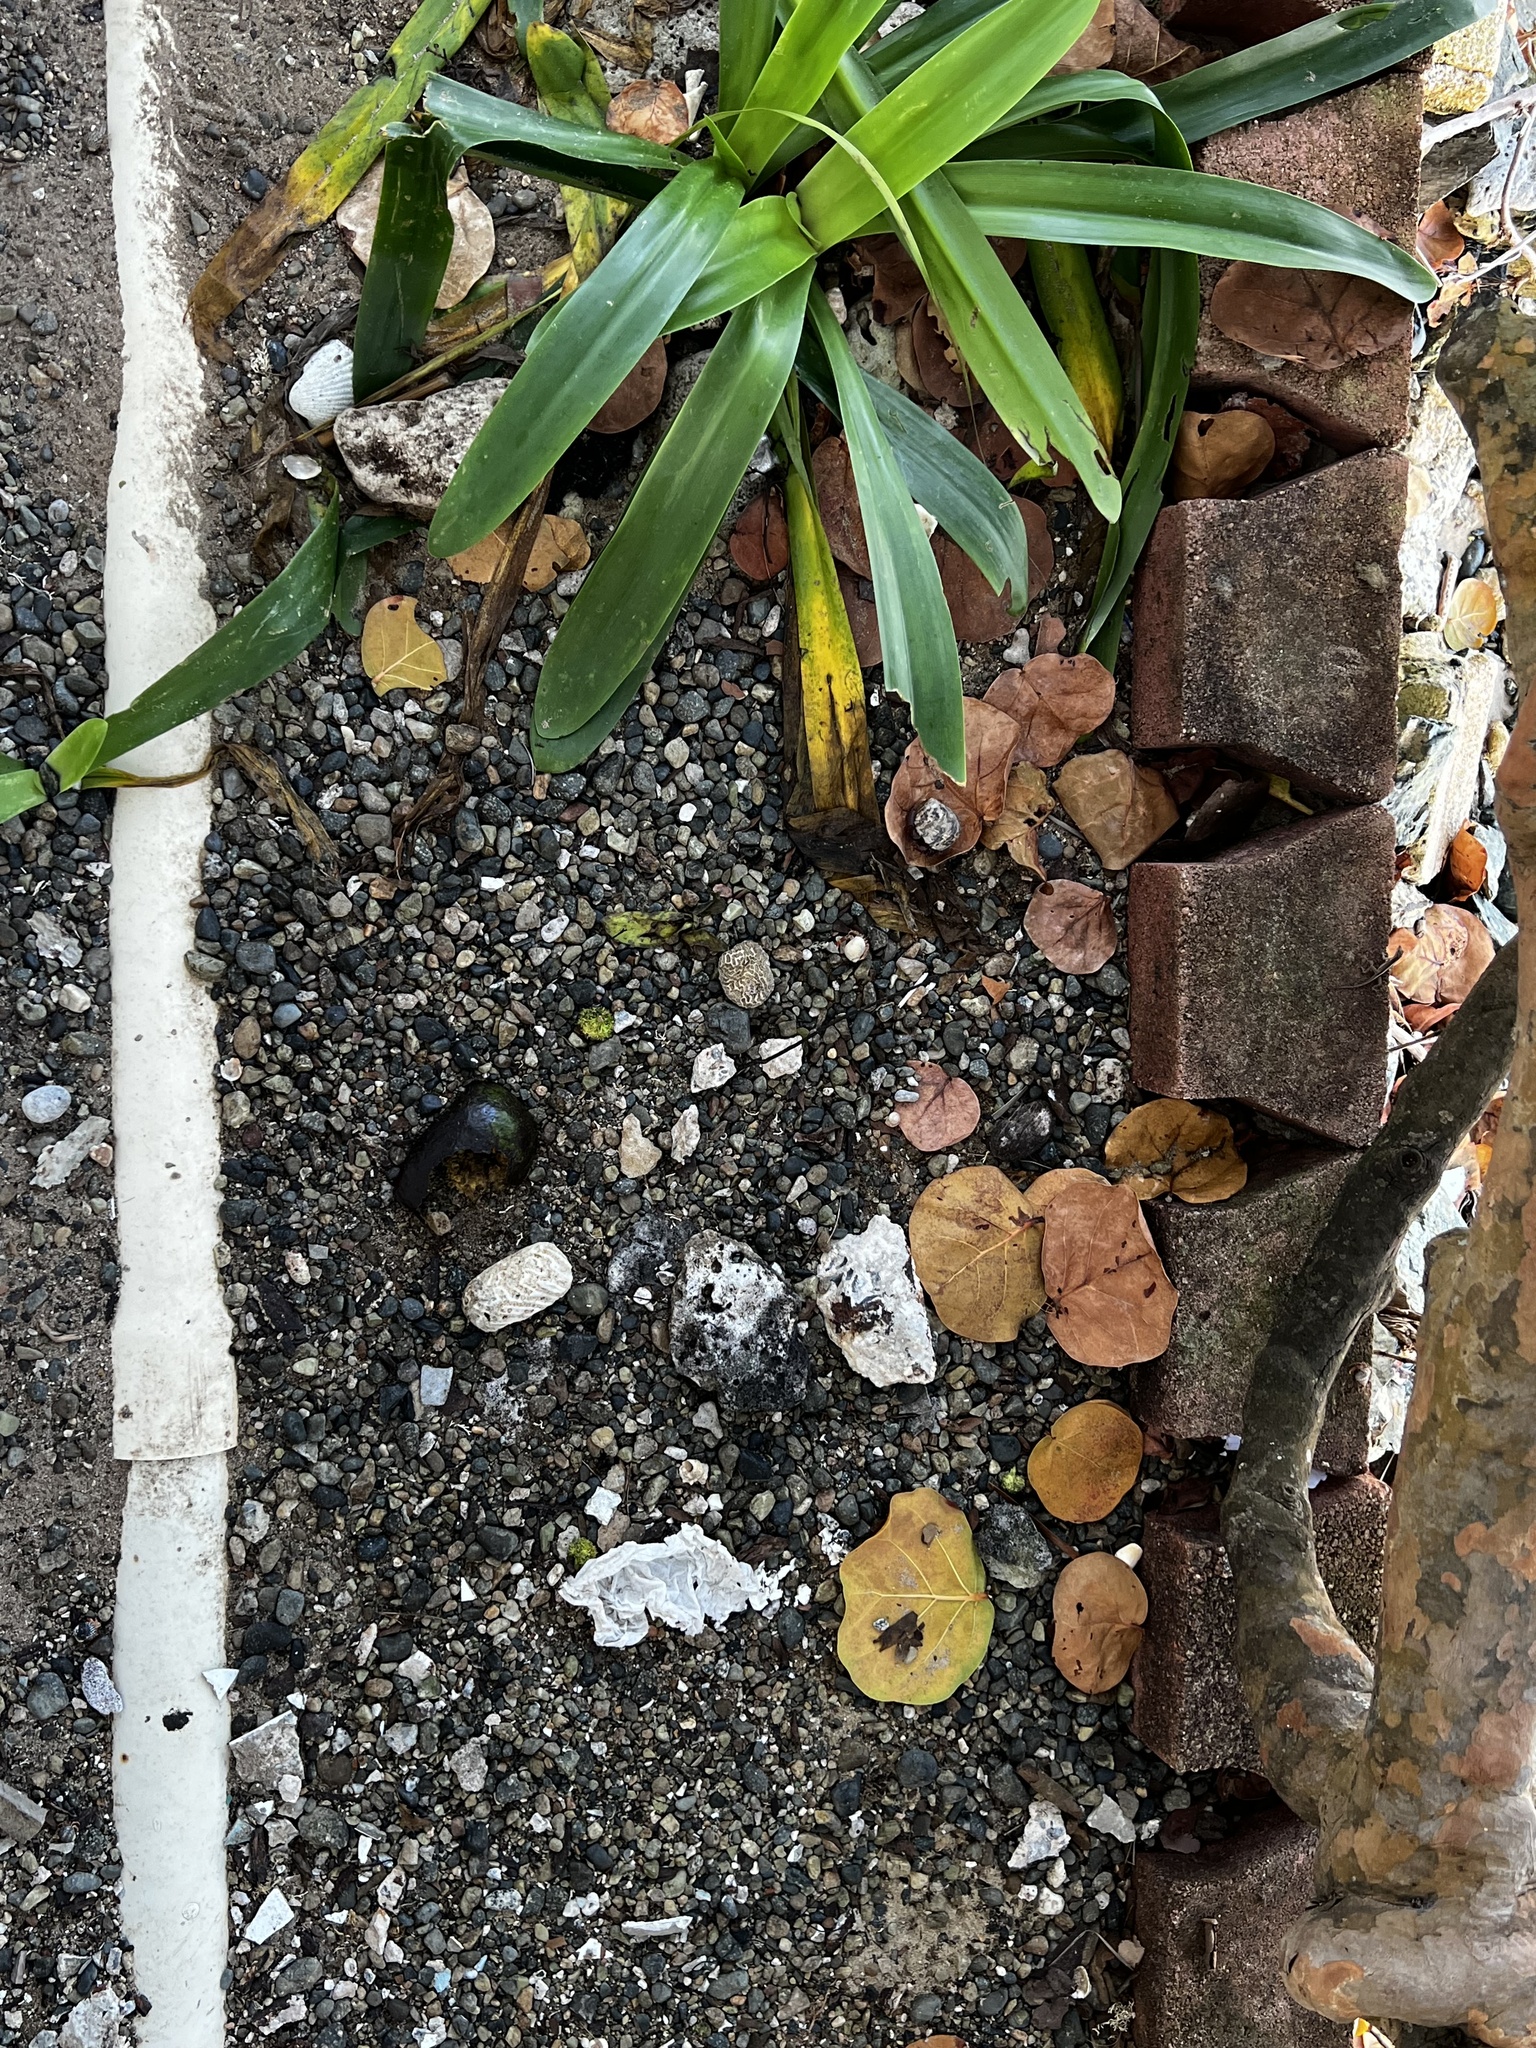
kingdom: Animalia
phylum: Arthropoda
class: Malacostraca
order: Decapoda
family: Coenobitidae
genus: Coenobita
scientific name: Coenobita clypeatus
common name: Caribbean hermit crab
